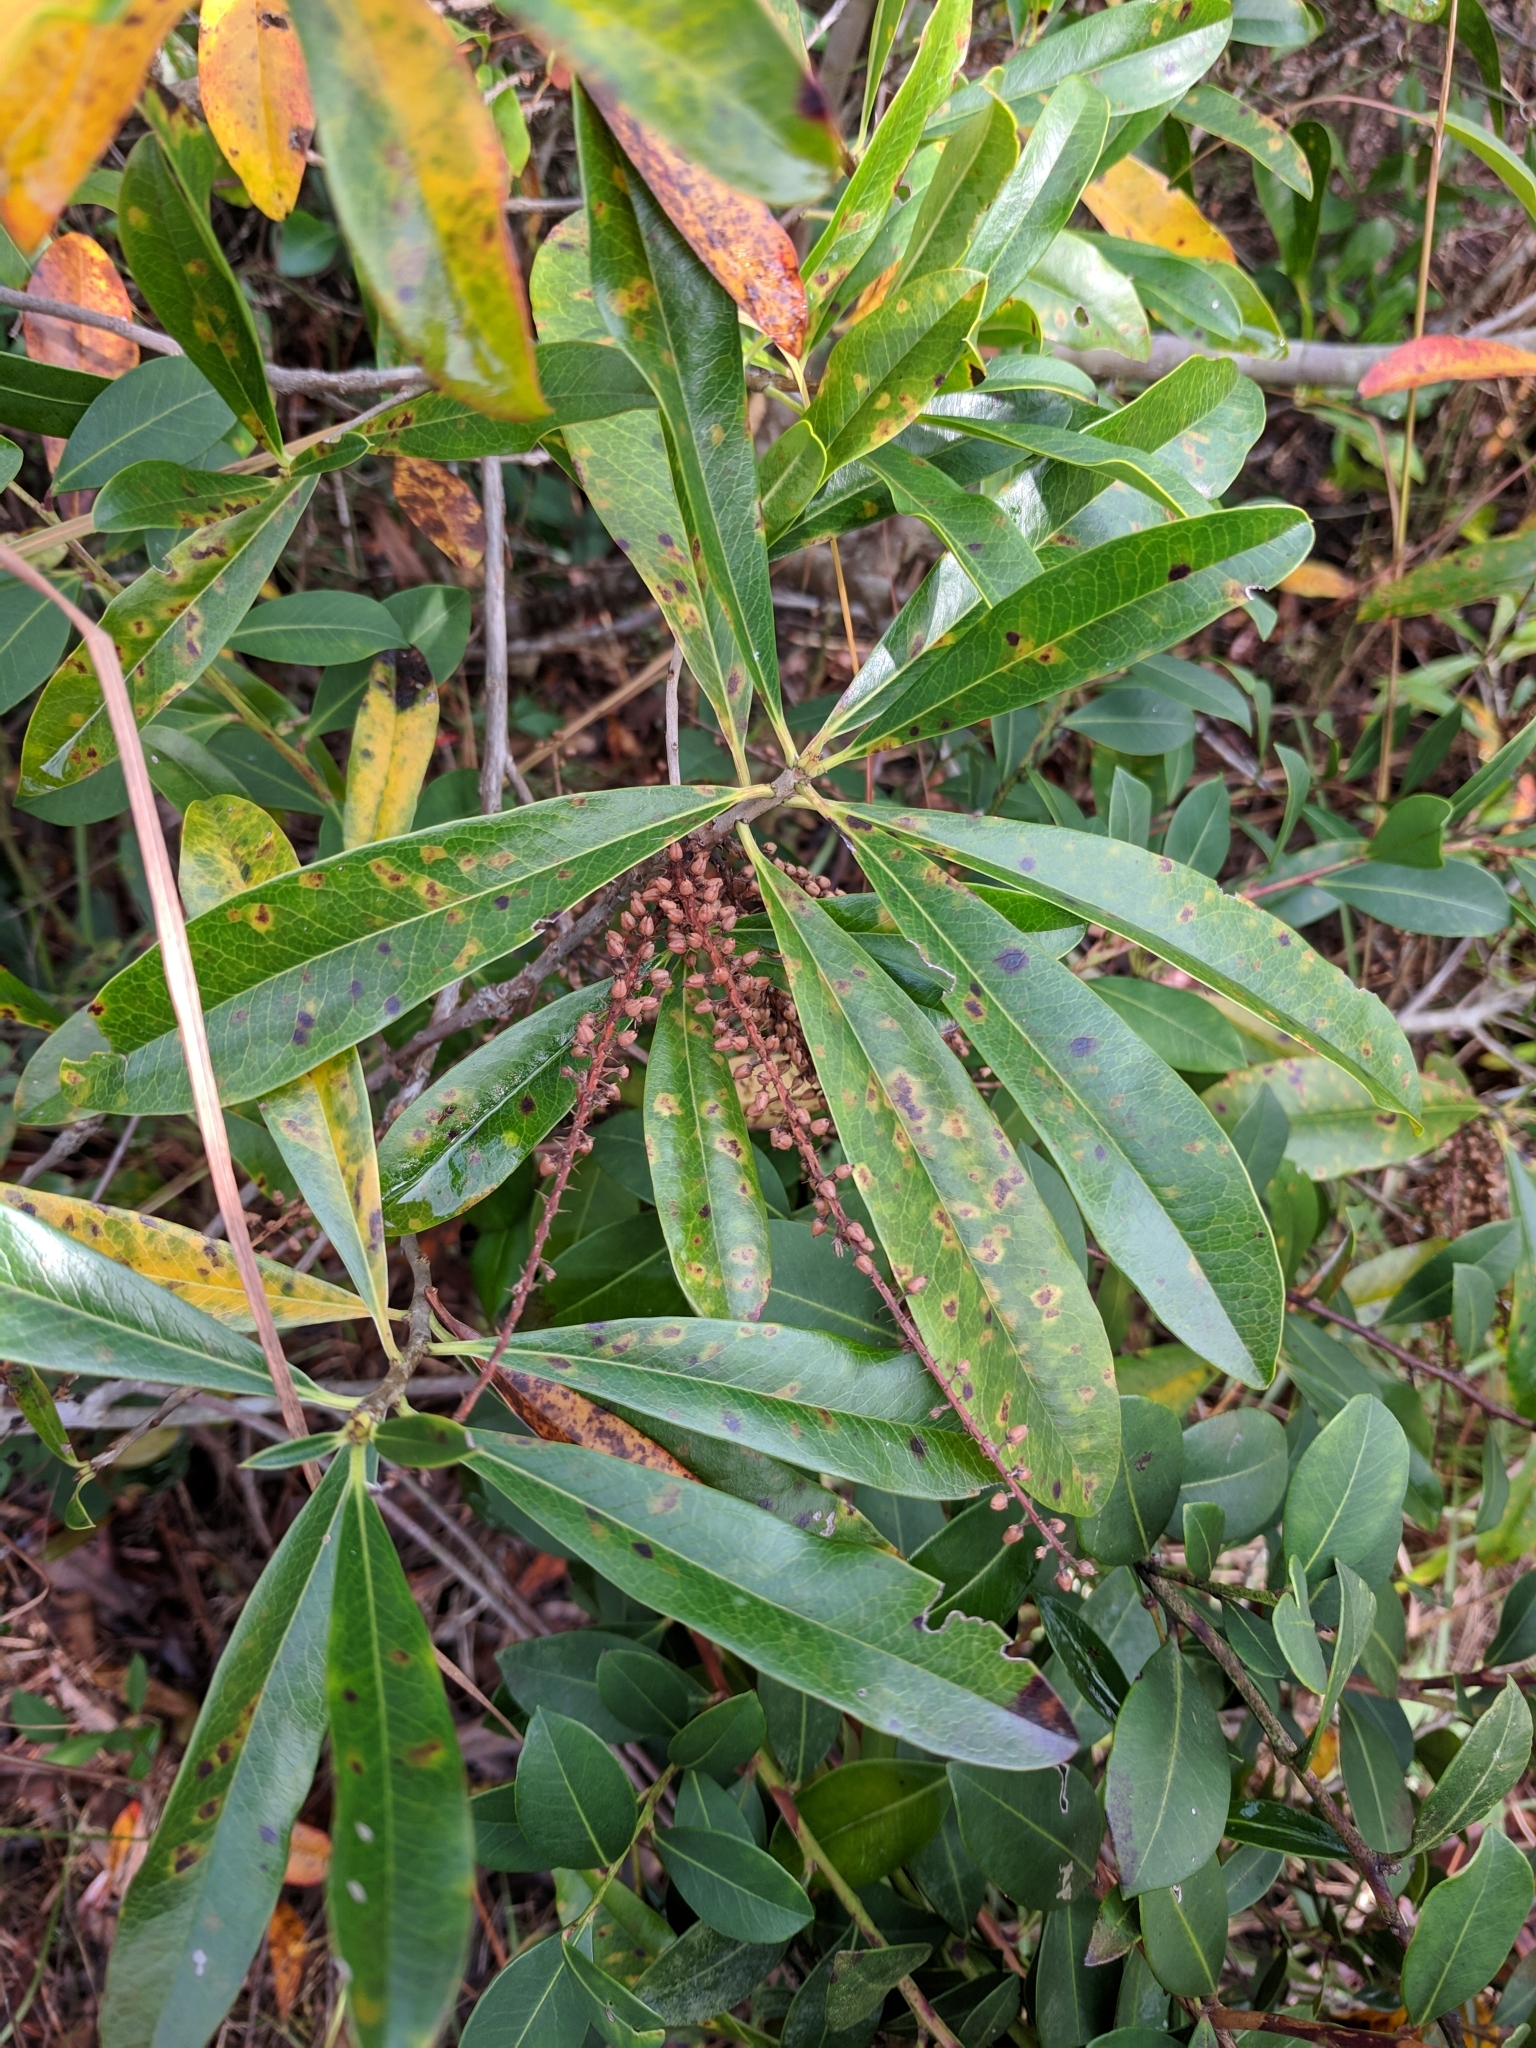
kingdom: Plantae
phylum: Tracheophyta
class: Magnoliopsida
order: Ericales
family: Cyrillaceae
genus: Cyrilla
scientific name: Cyrilla racemiflora
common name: Black titi
